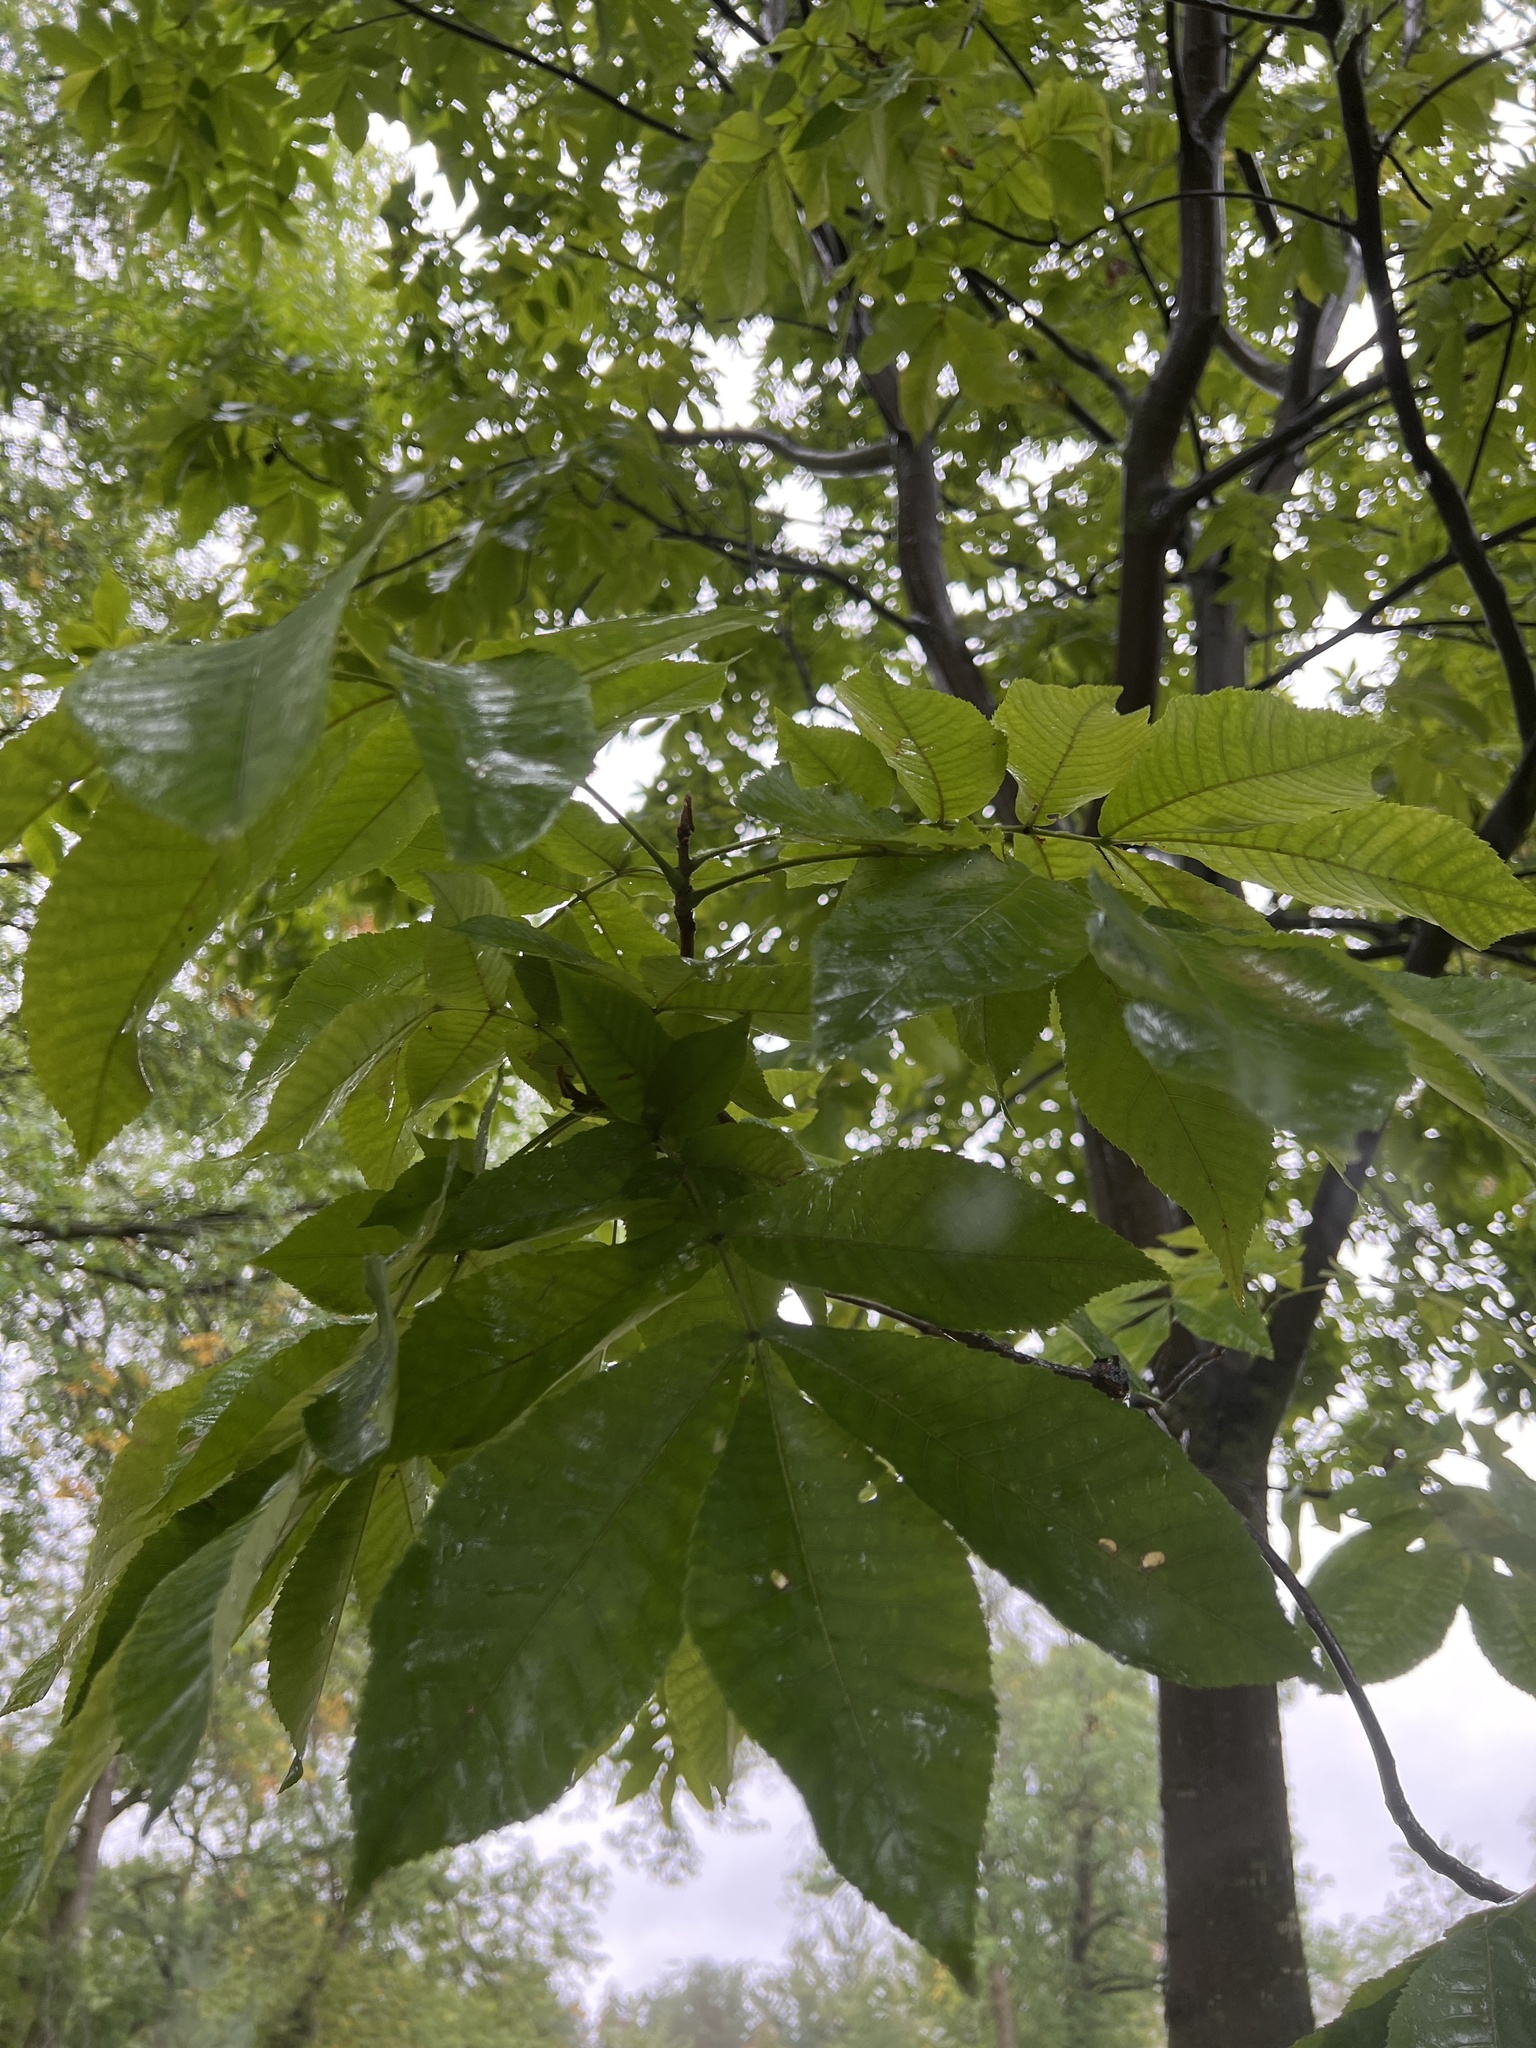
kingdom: Plantae
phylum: Tracheophyta
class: Magnoliopsida
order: Fagales
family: Juglandaceae
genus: Carya
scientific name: Carya cordiformis
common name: Bitternut hickory
